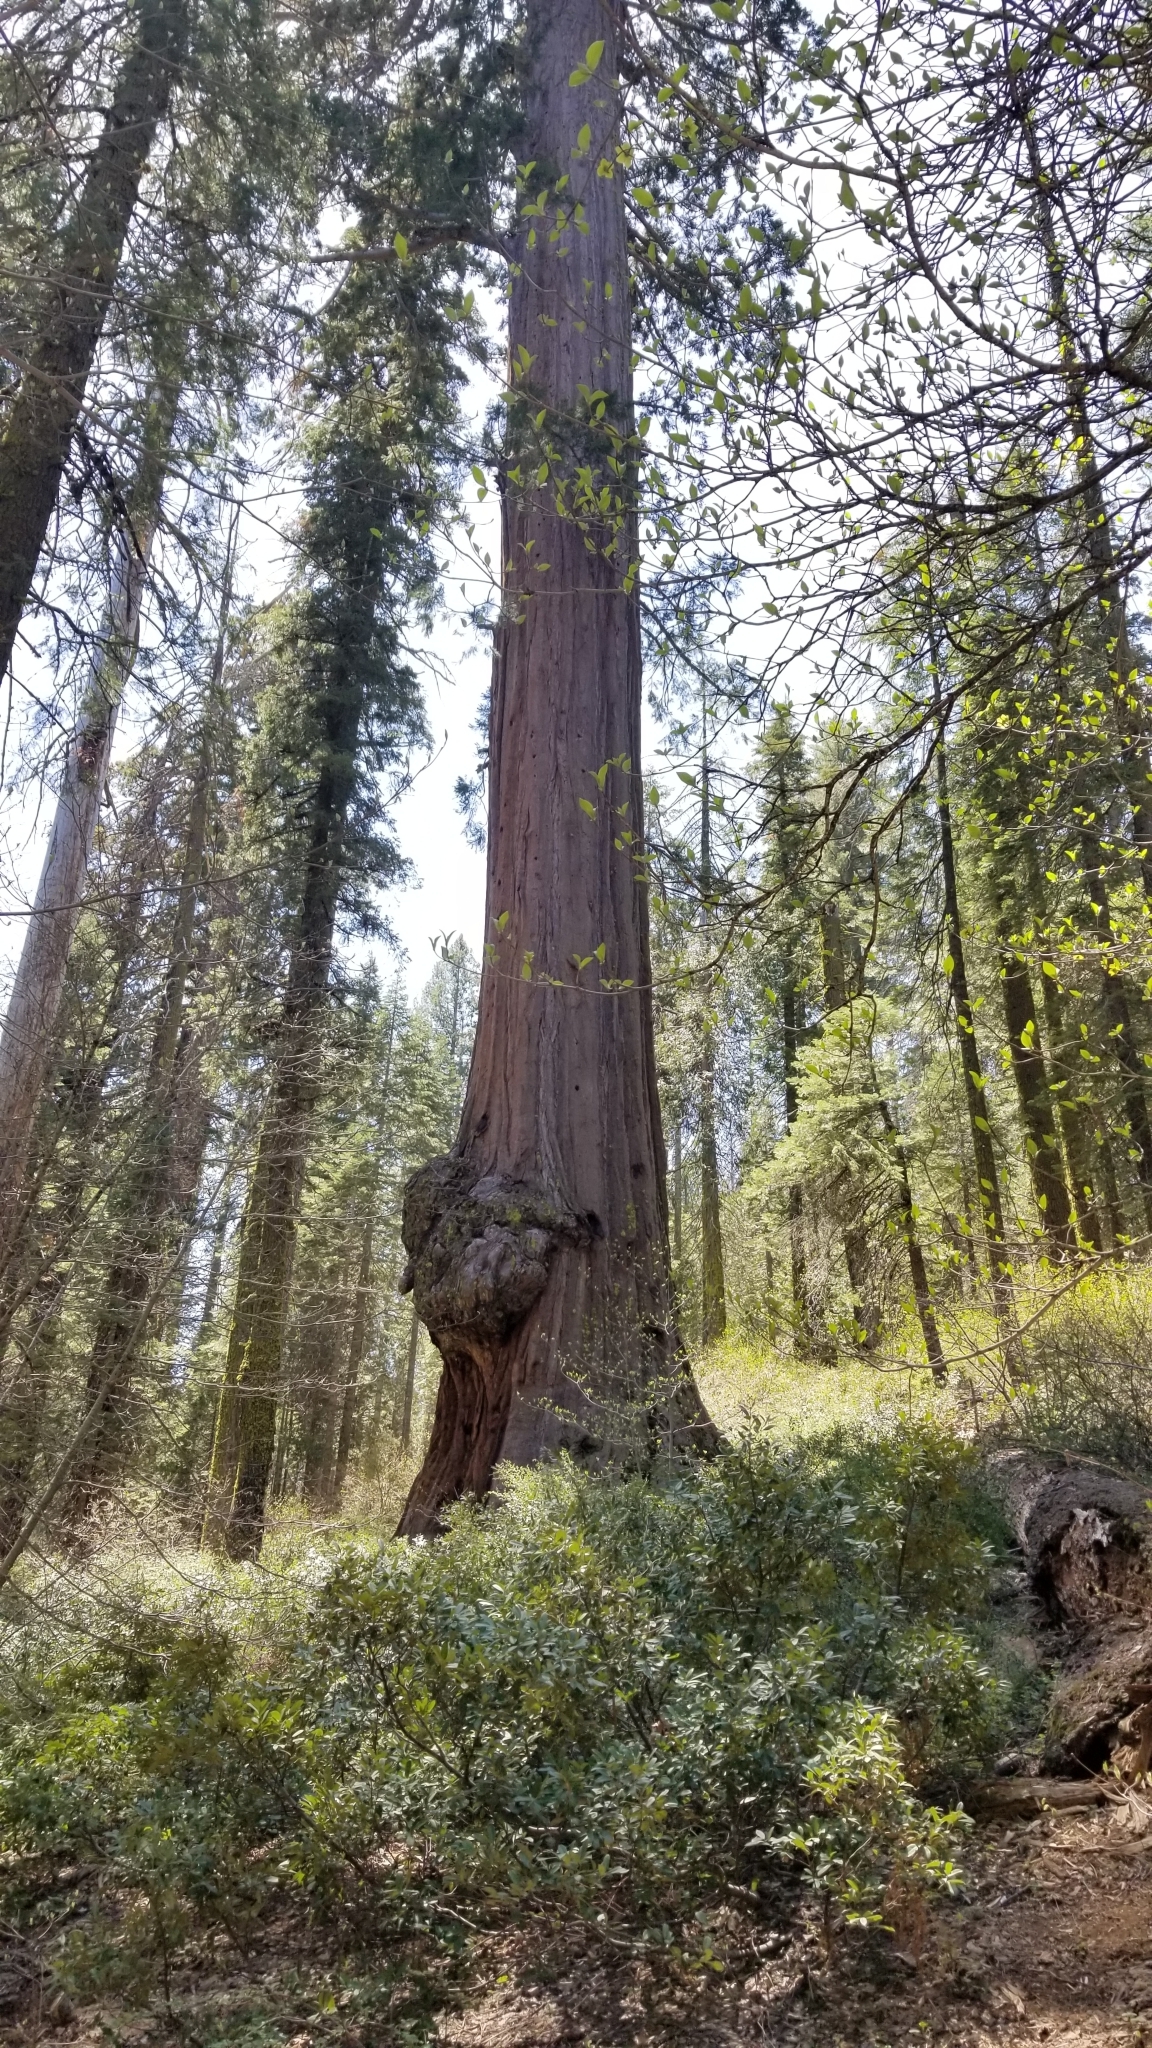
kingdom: Plantae
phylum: Tracheophyta
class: Pinopsida
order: Pinales
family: Cupressaceae
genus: Sequoiadendron
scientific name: Sequoiadendron giganteum
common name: Wellingtonia
